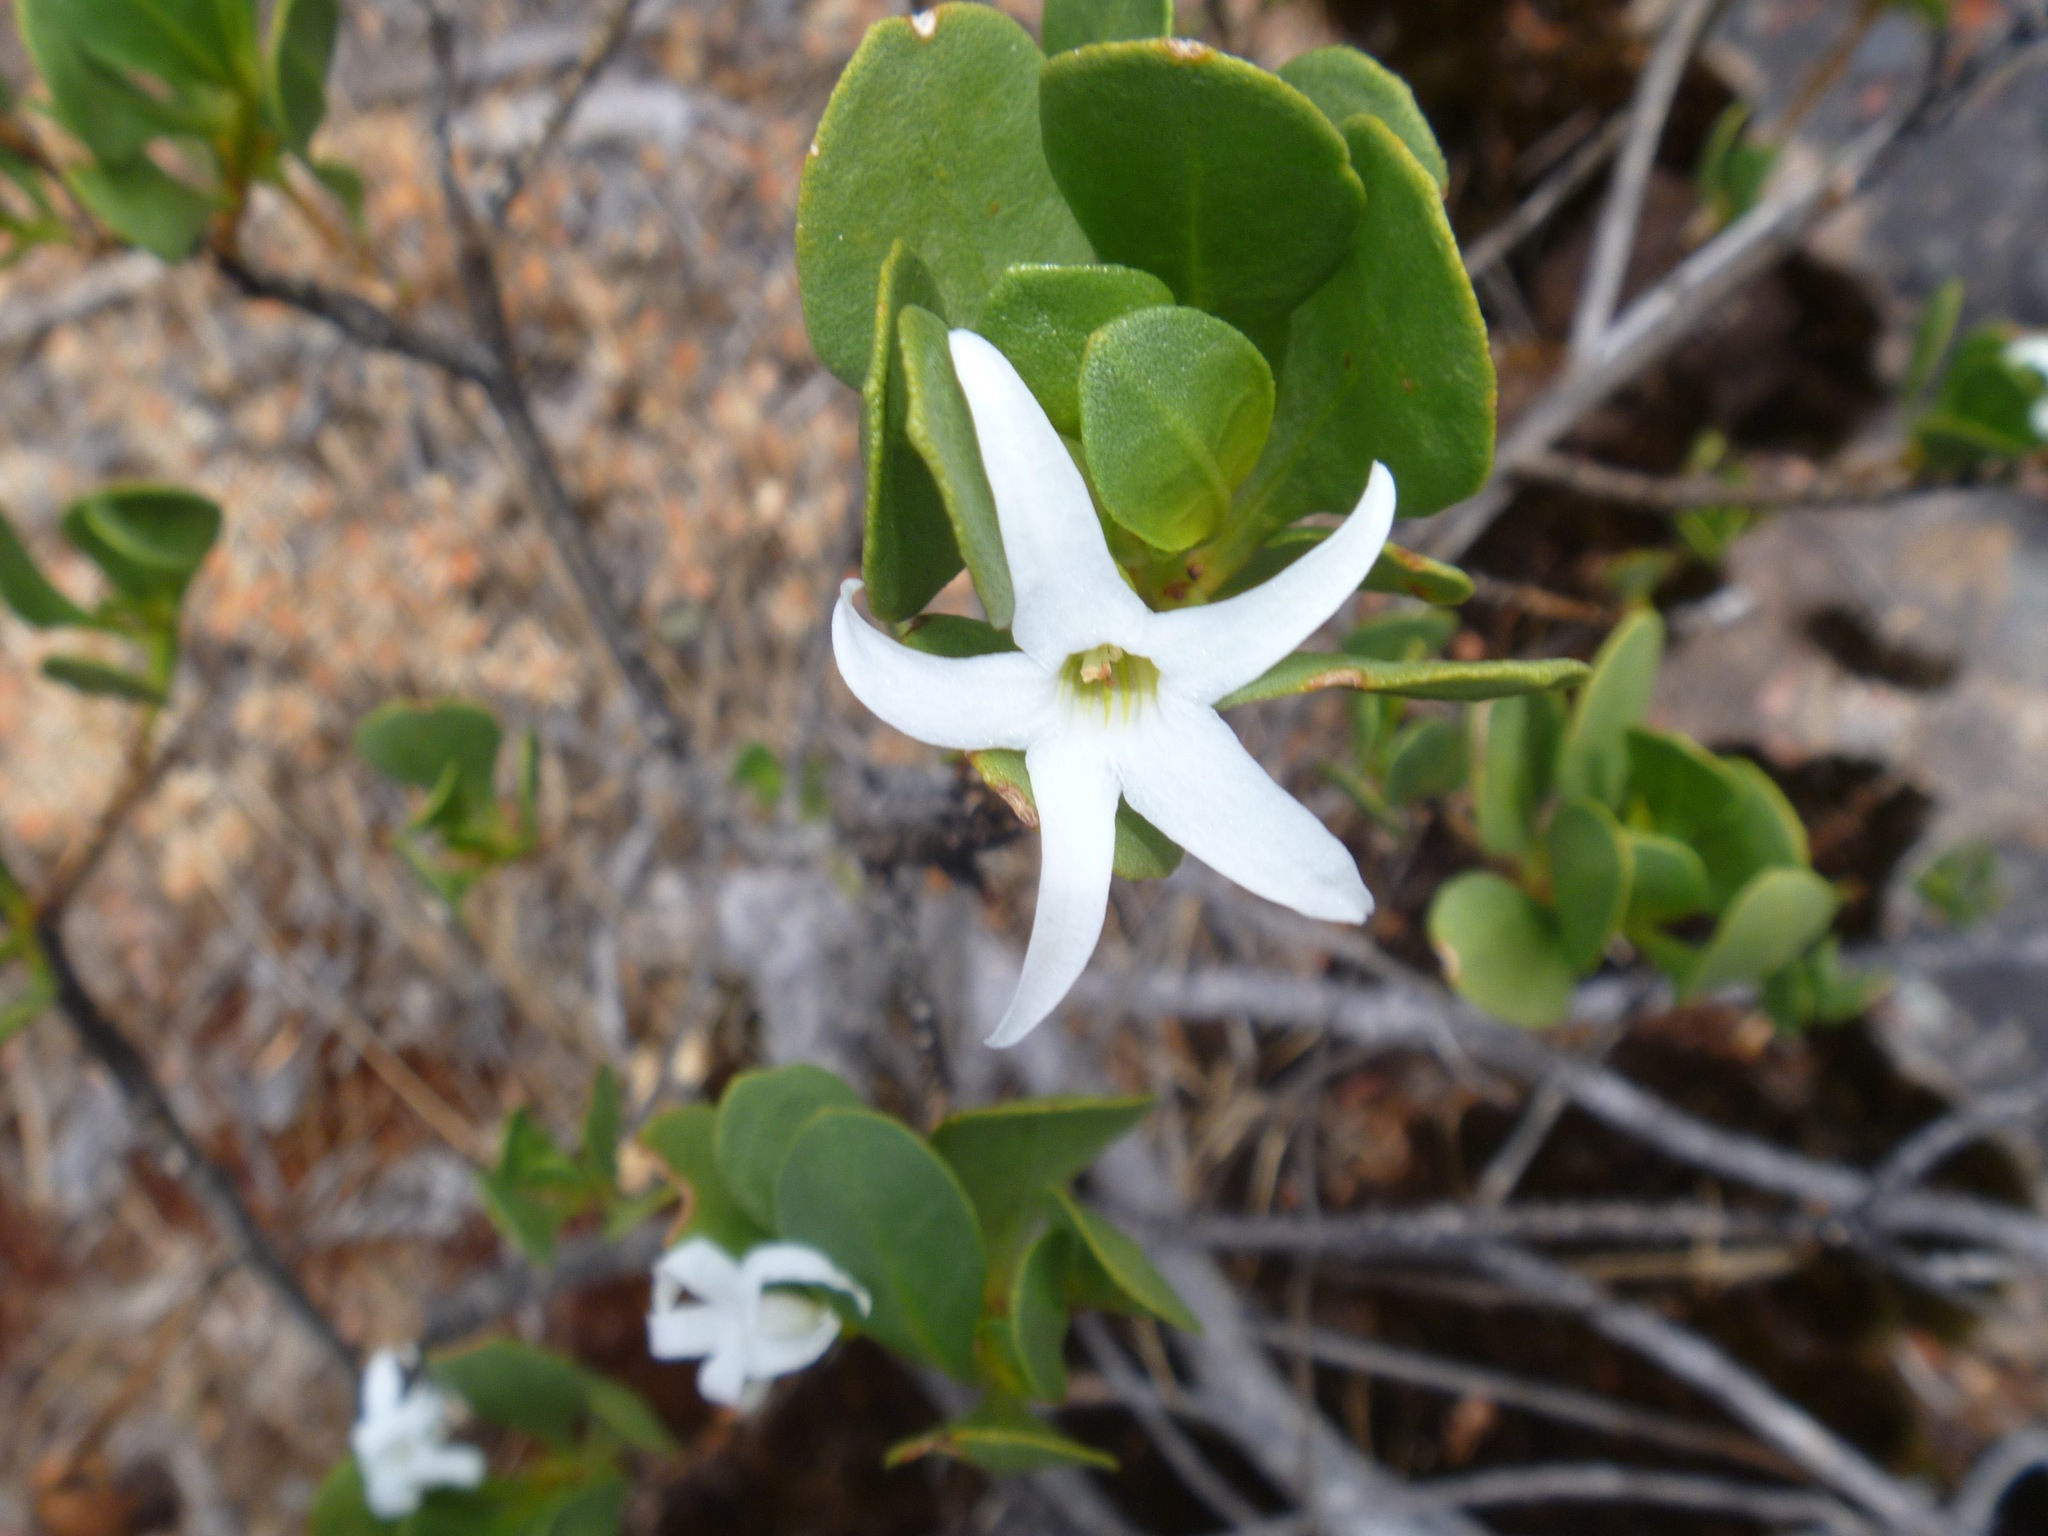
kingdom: Plantae
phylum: Tracheophyta
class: Magnoliopsida
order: Solanales
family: Solanaceae
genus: Anthocercis
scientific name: Anthocercis viscosa
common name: Sticky tailflower
